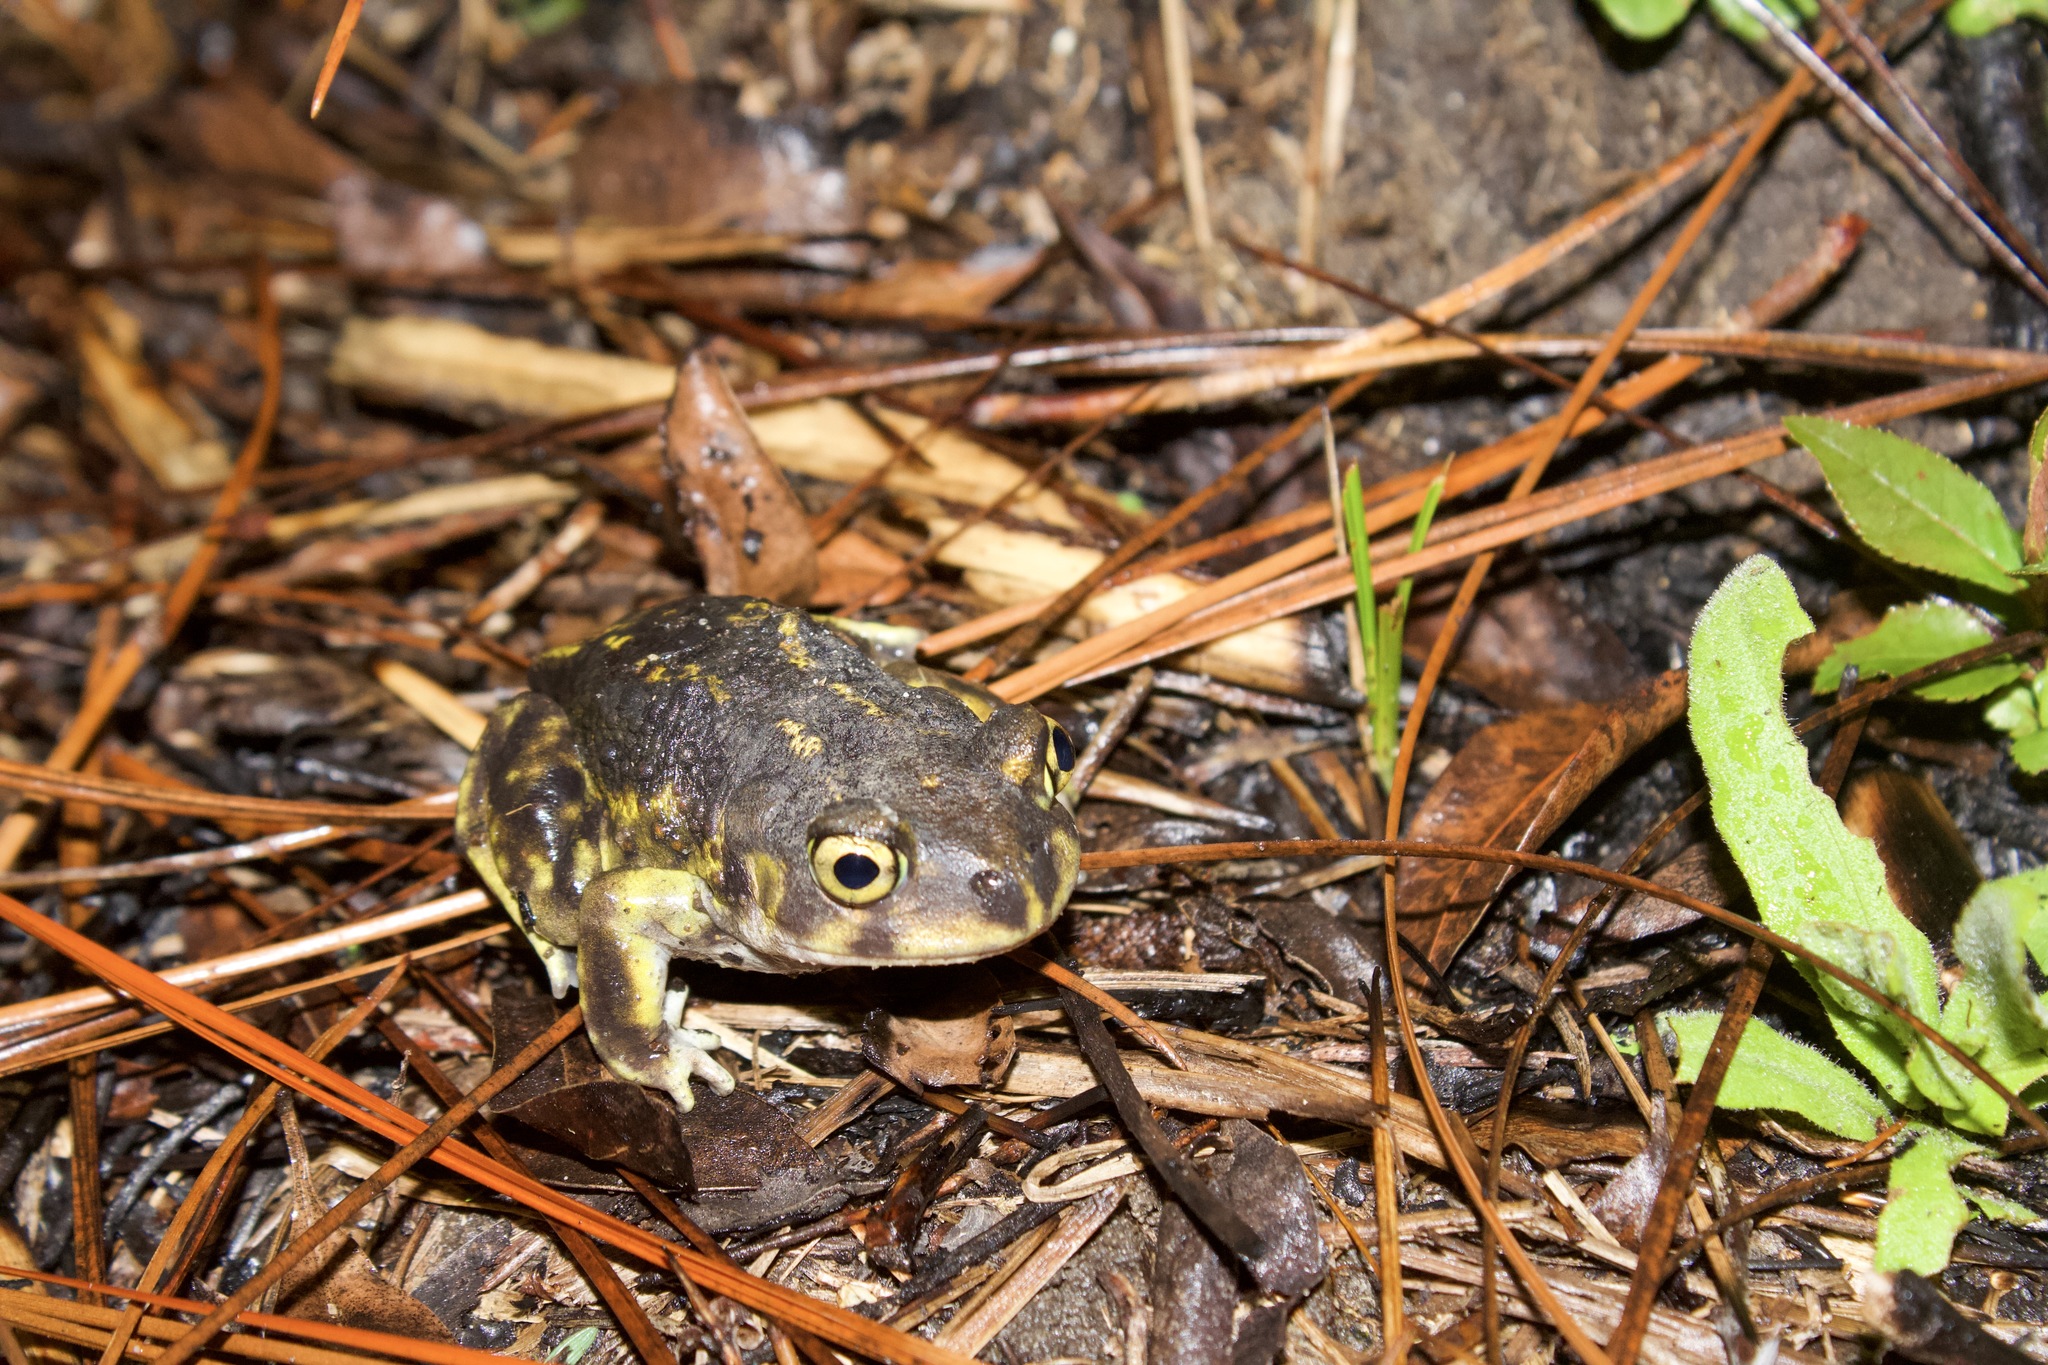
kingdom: Animalia
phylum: Chordata
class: Amphibia
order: Anura
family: Scaphiopodidae
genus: Scaphiopus
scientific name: Scaphiopus holbrookii
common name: Eastern spadefoot toad
